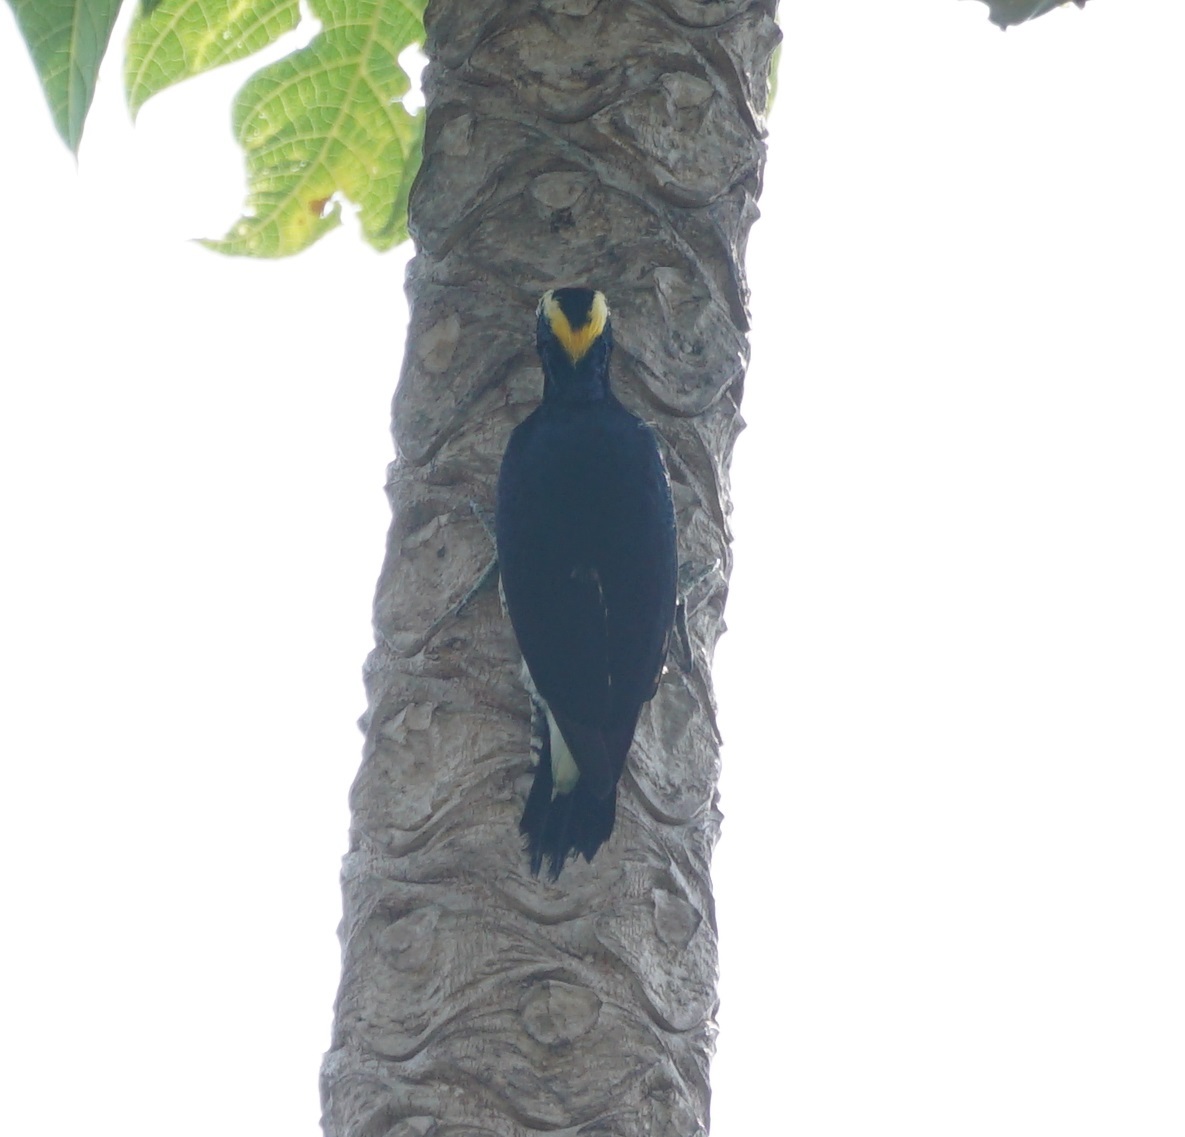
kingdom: Animalia
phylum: Chordata
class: Aves
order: Piciformes
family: Picidae
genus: Melanerpes
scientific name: Melanerpes cruentatus
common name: Yellow-tufted woodpecker
